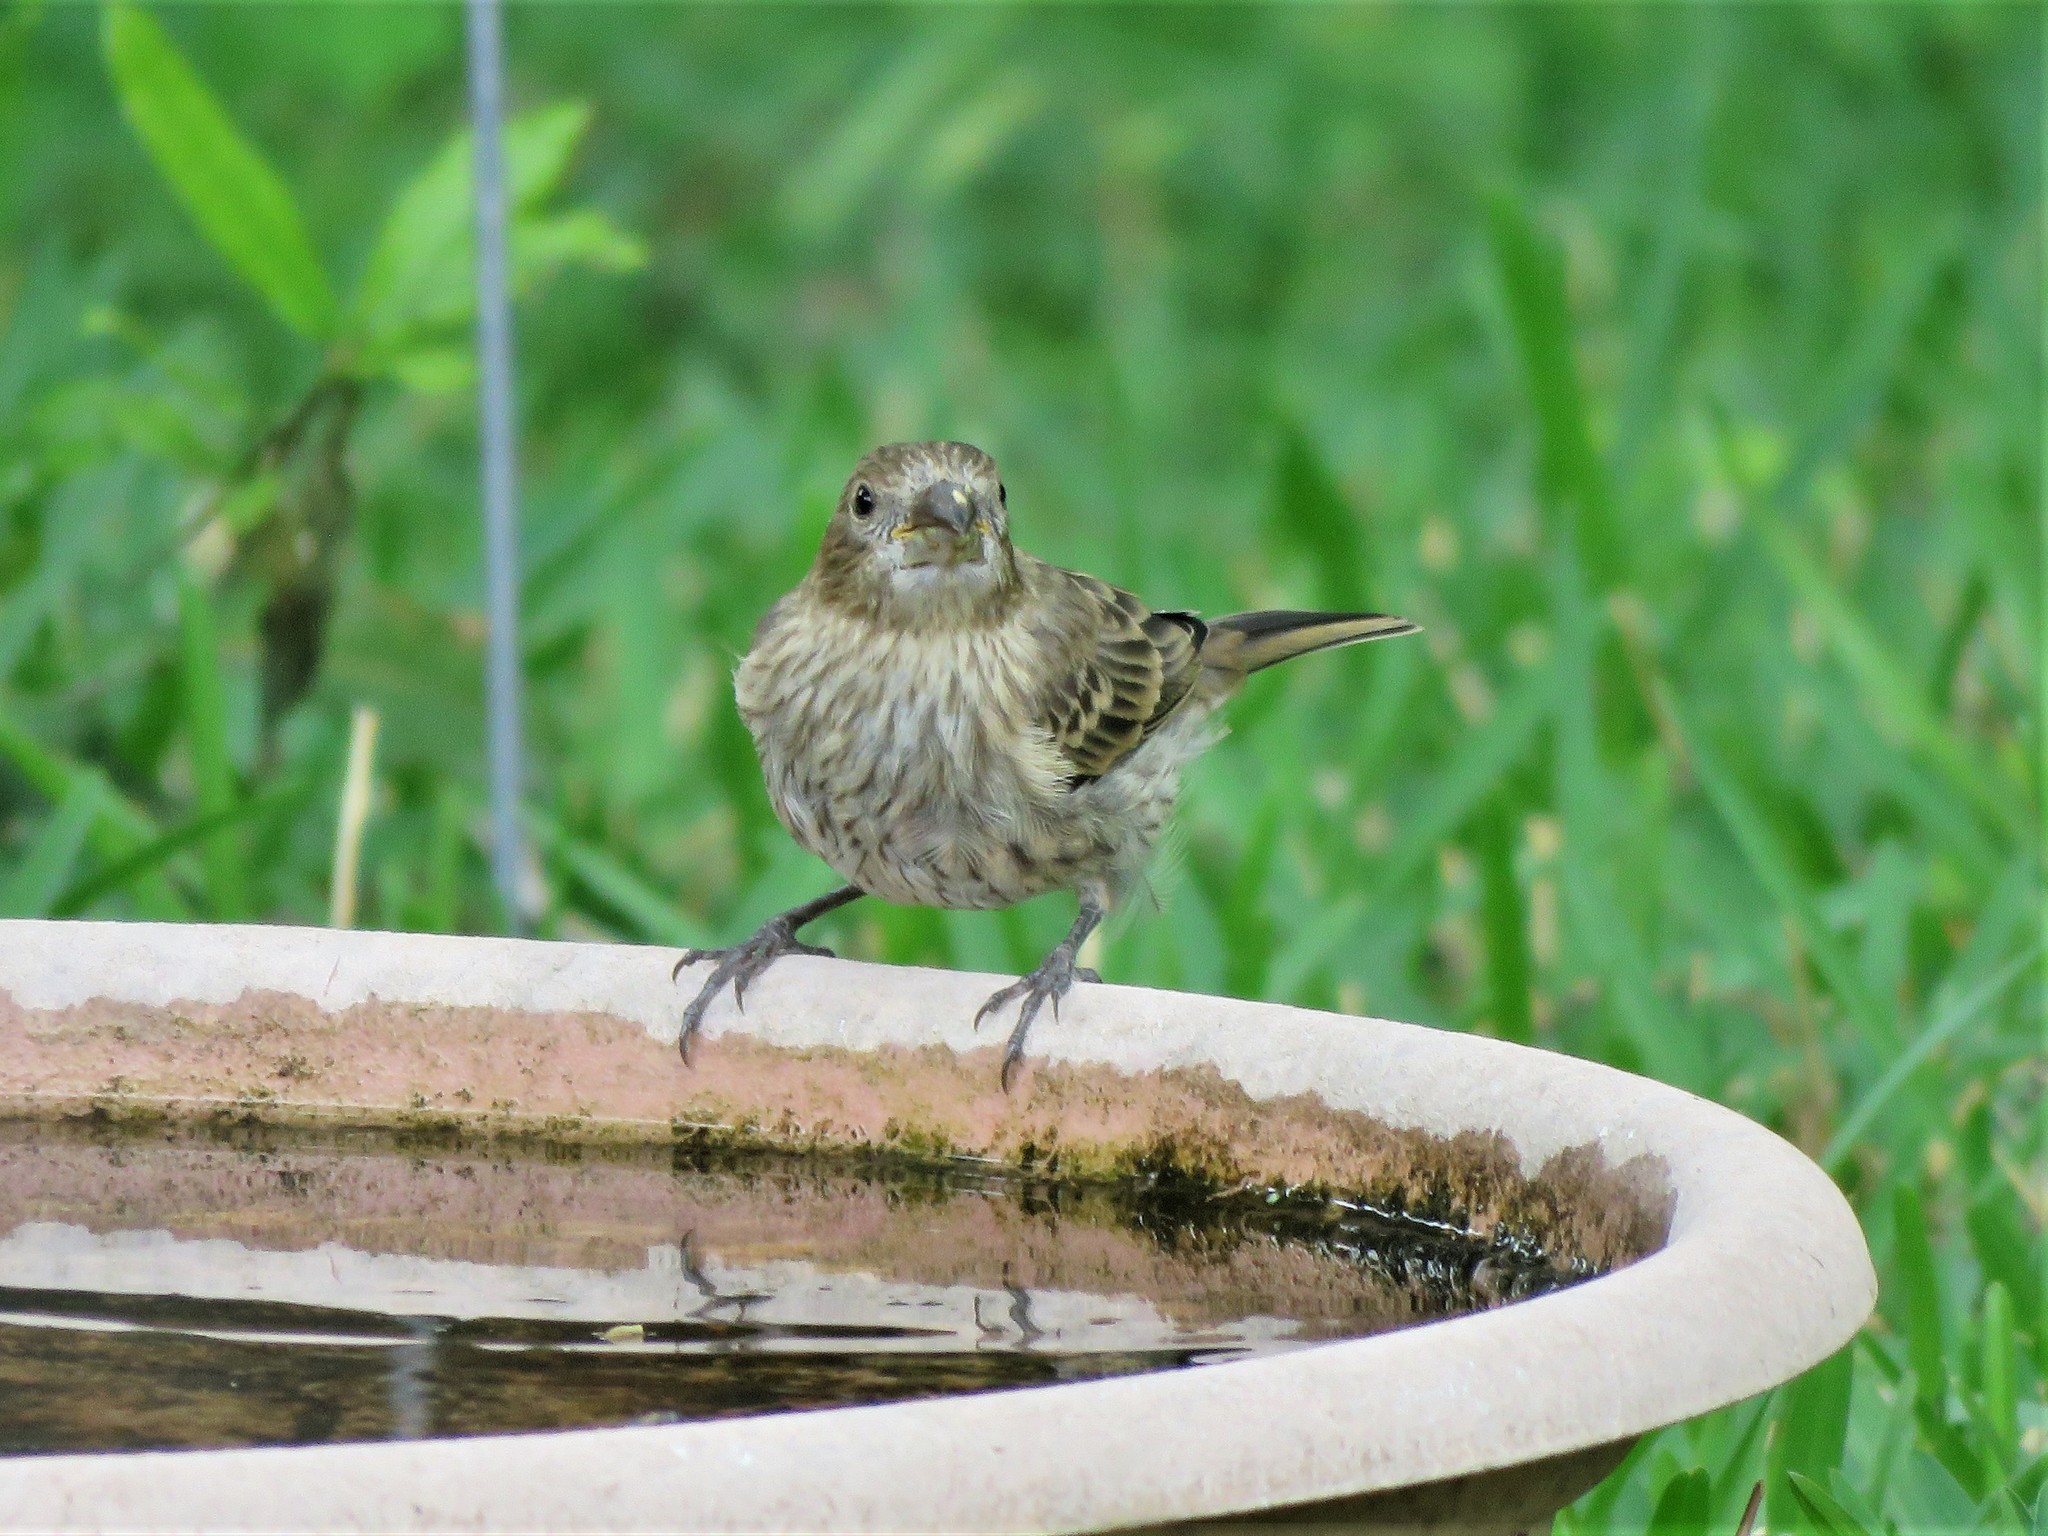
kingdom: Animalia
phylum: Chordata
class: Aves
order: Passeriformes
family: Fringillidae
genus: Haemorhous
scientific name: Haemorhous mexicanus
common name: House finch
